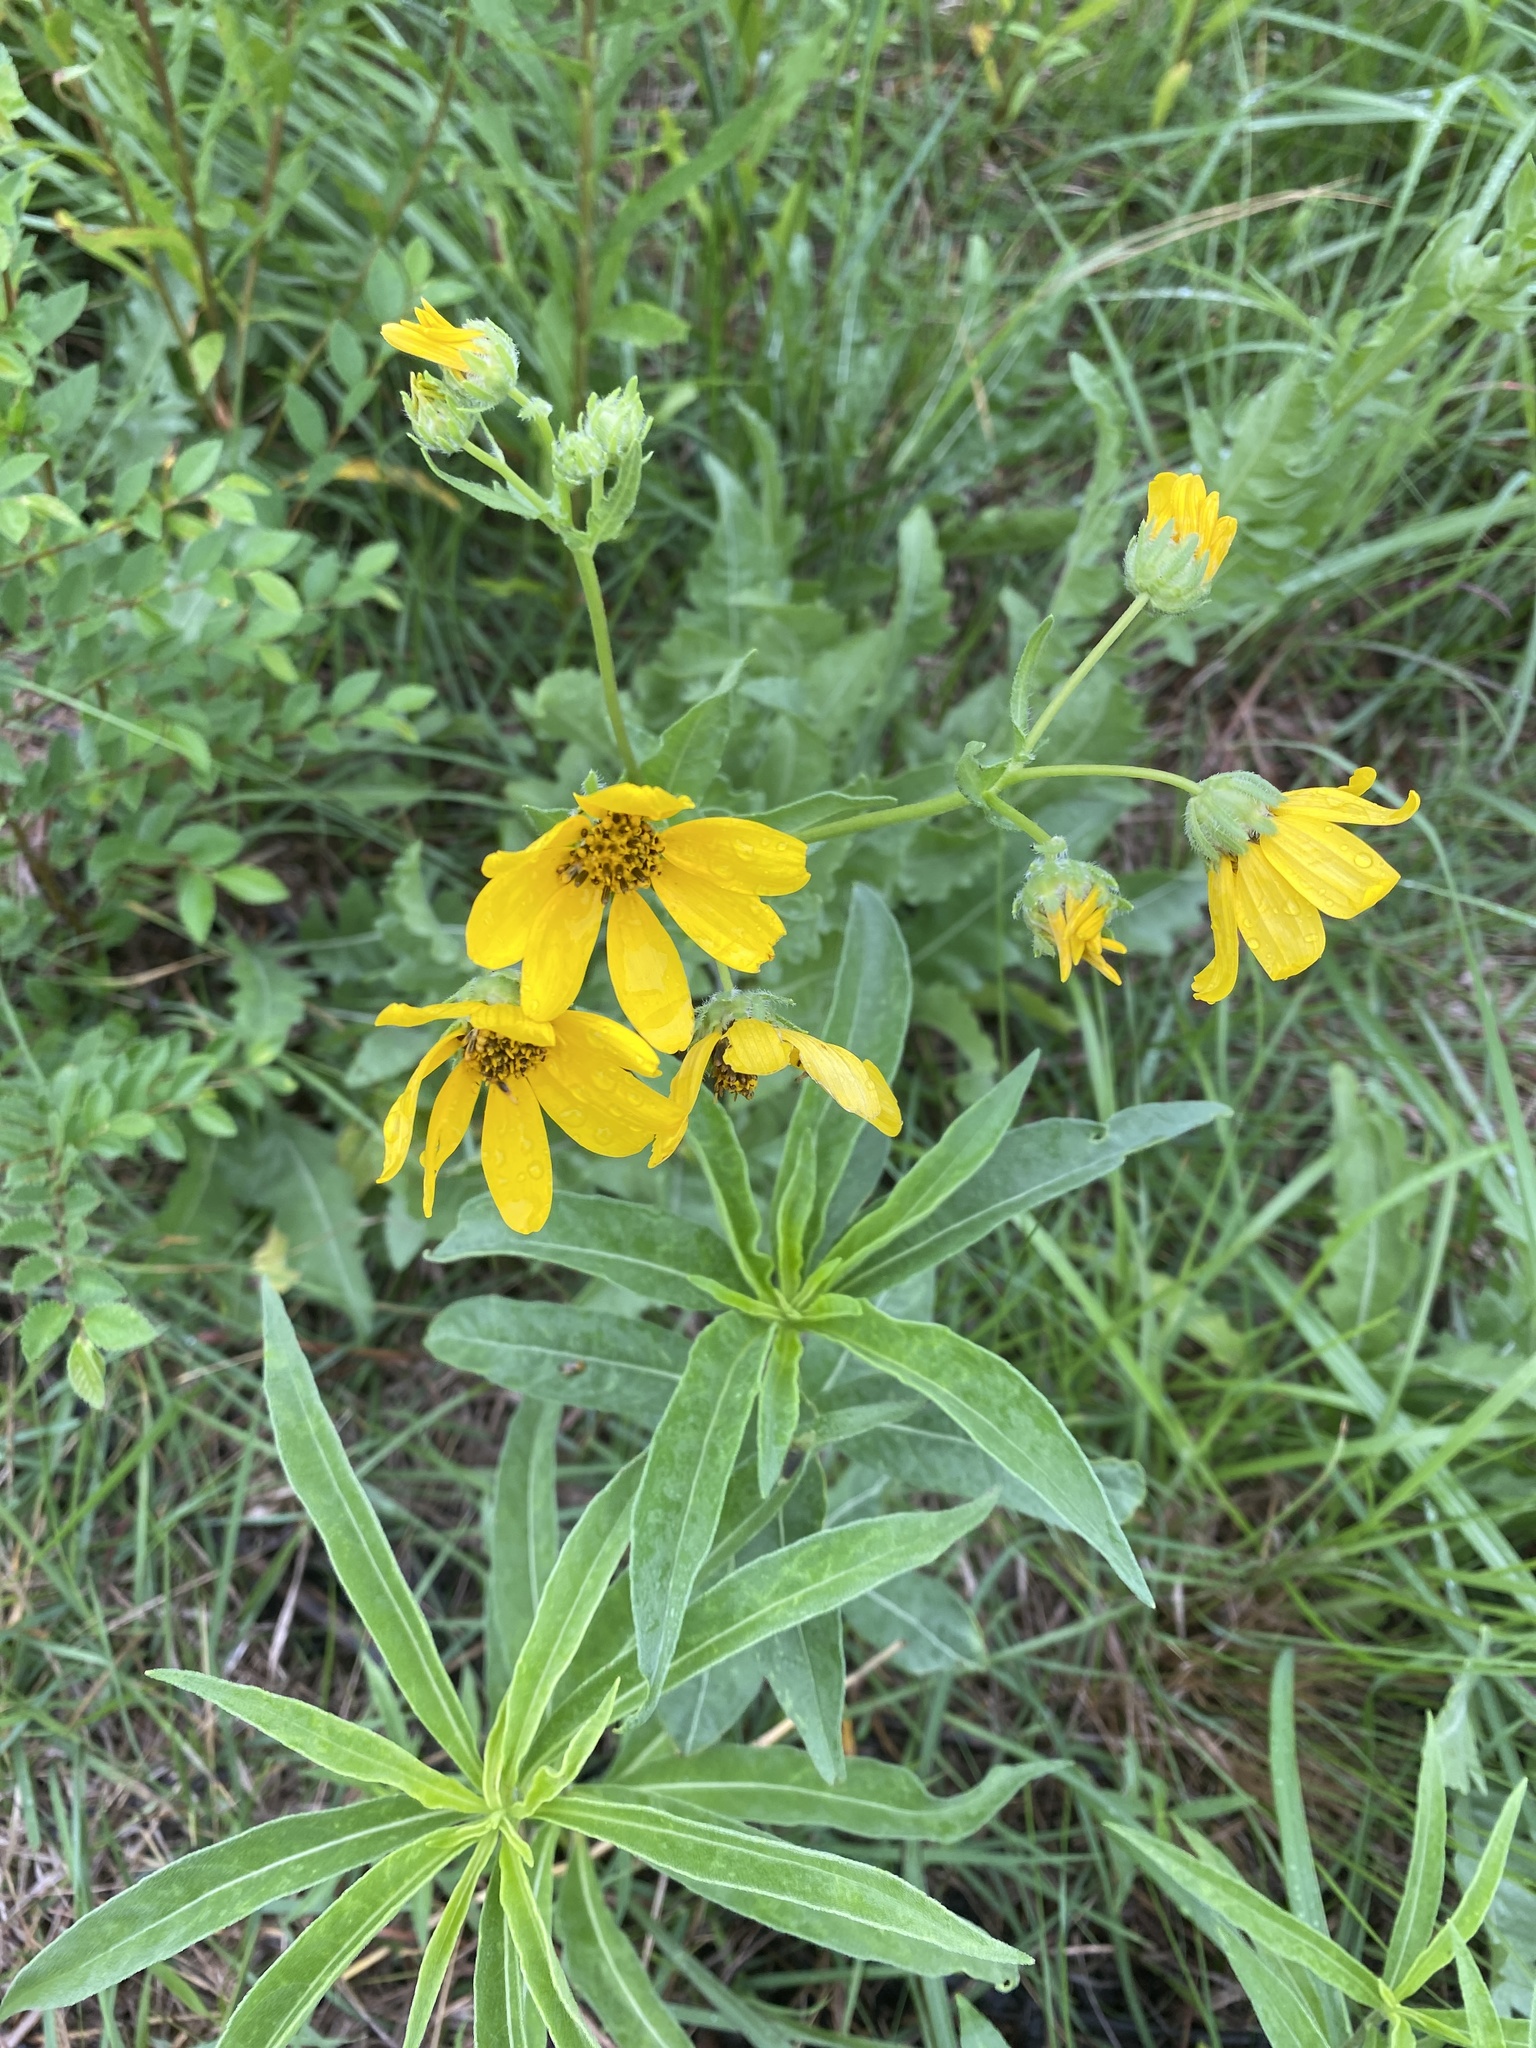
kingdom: Plantae
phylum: Tracheophyta
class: Magnoliopsida
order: Asterales
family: Asteraceae
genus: Engelmannia
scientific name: Engelmannia peristenia
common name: Engelmann's daisy
